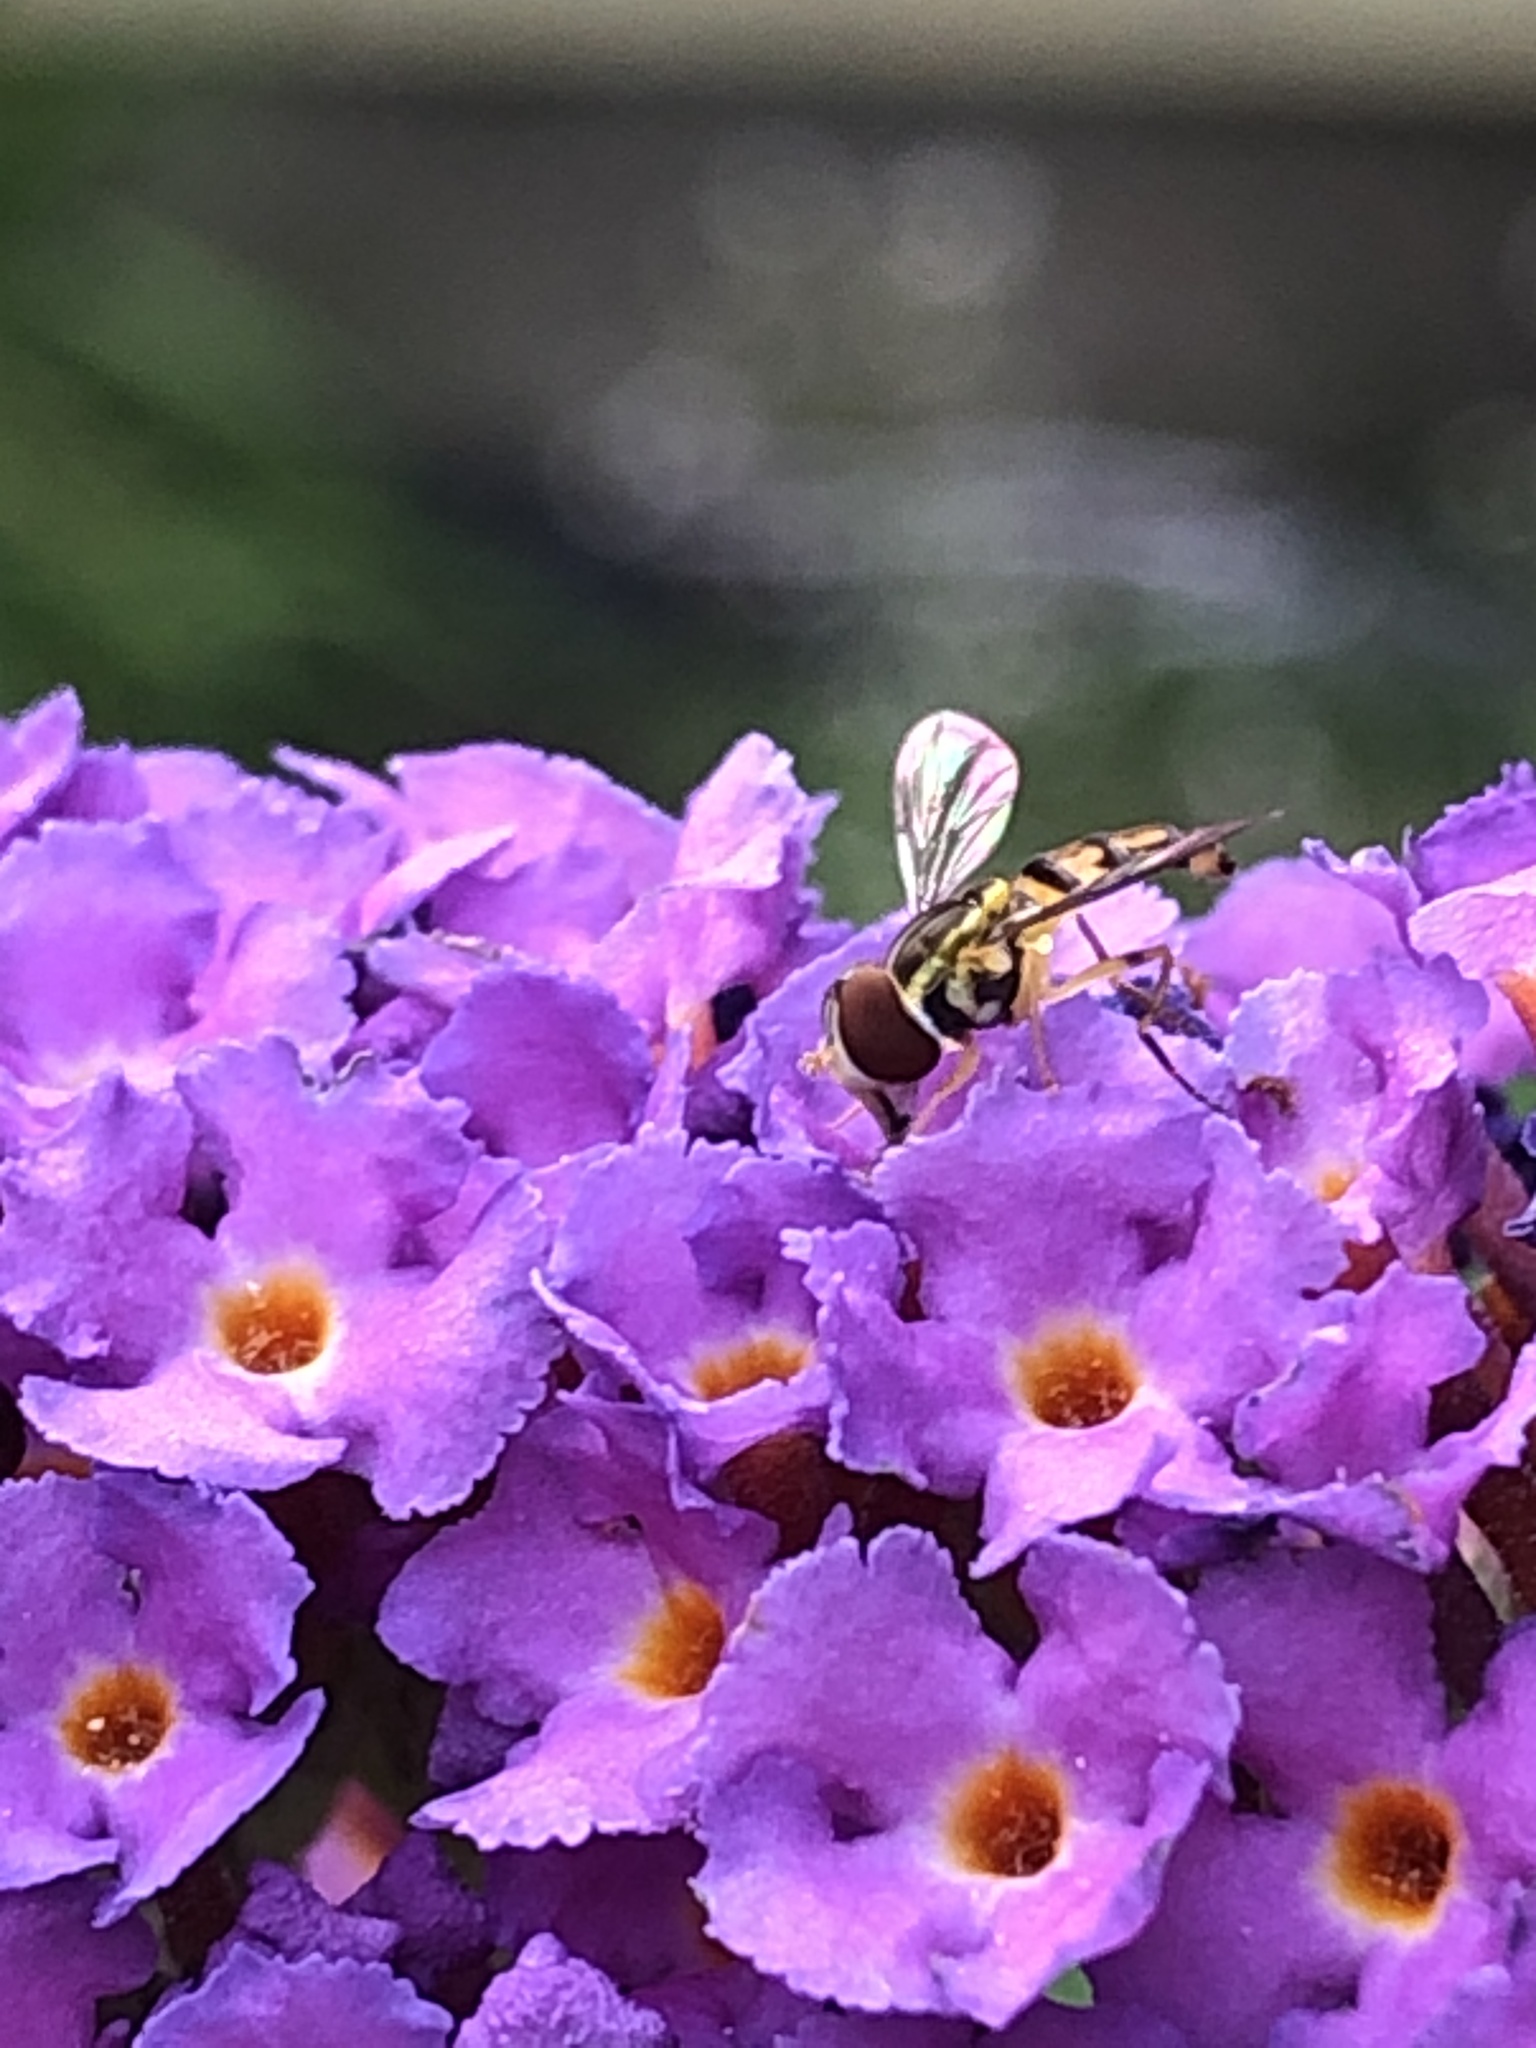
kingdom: Animalia
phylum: Arthropoda
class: Insecta
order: Diptera
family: Syrphidae
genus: Toxomerus
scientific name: Toxomerus geminatus
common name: Eastern calligrapher
